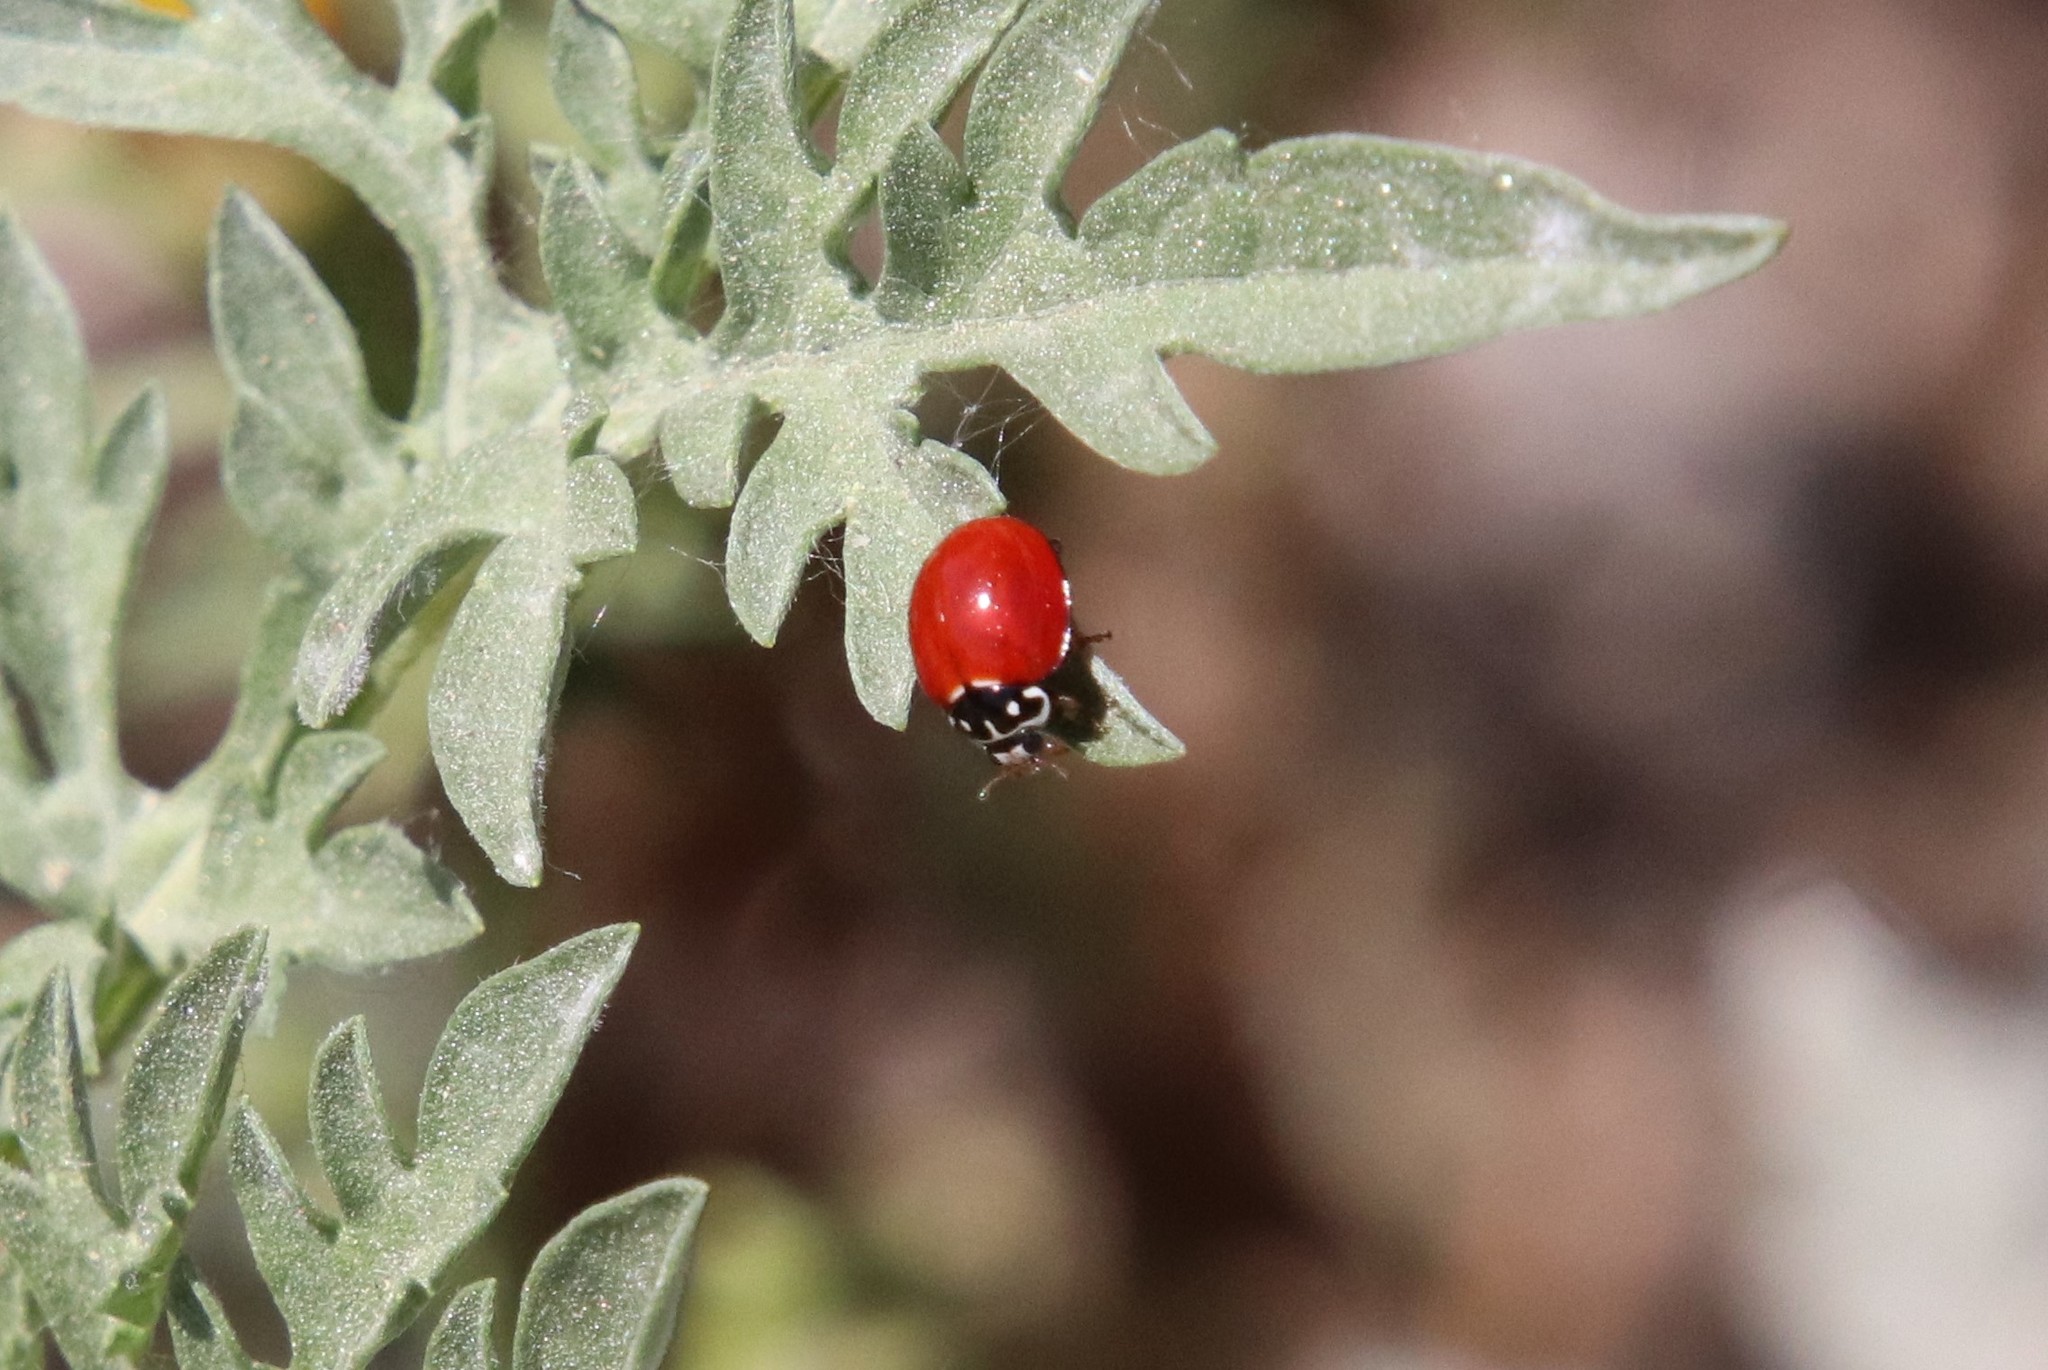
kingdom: Animalia
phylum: Arthropoda
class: Insecta
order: Coleoptera
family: Coccinellidae
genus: Cycloneda
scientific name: Cycloneda sanguinea
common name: Ladybird beetle
